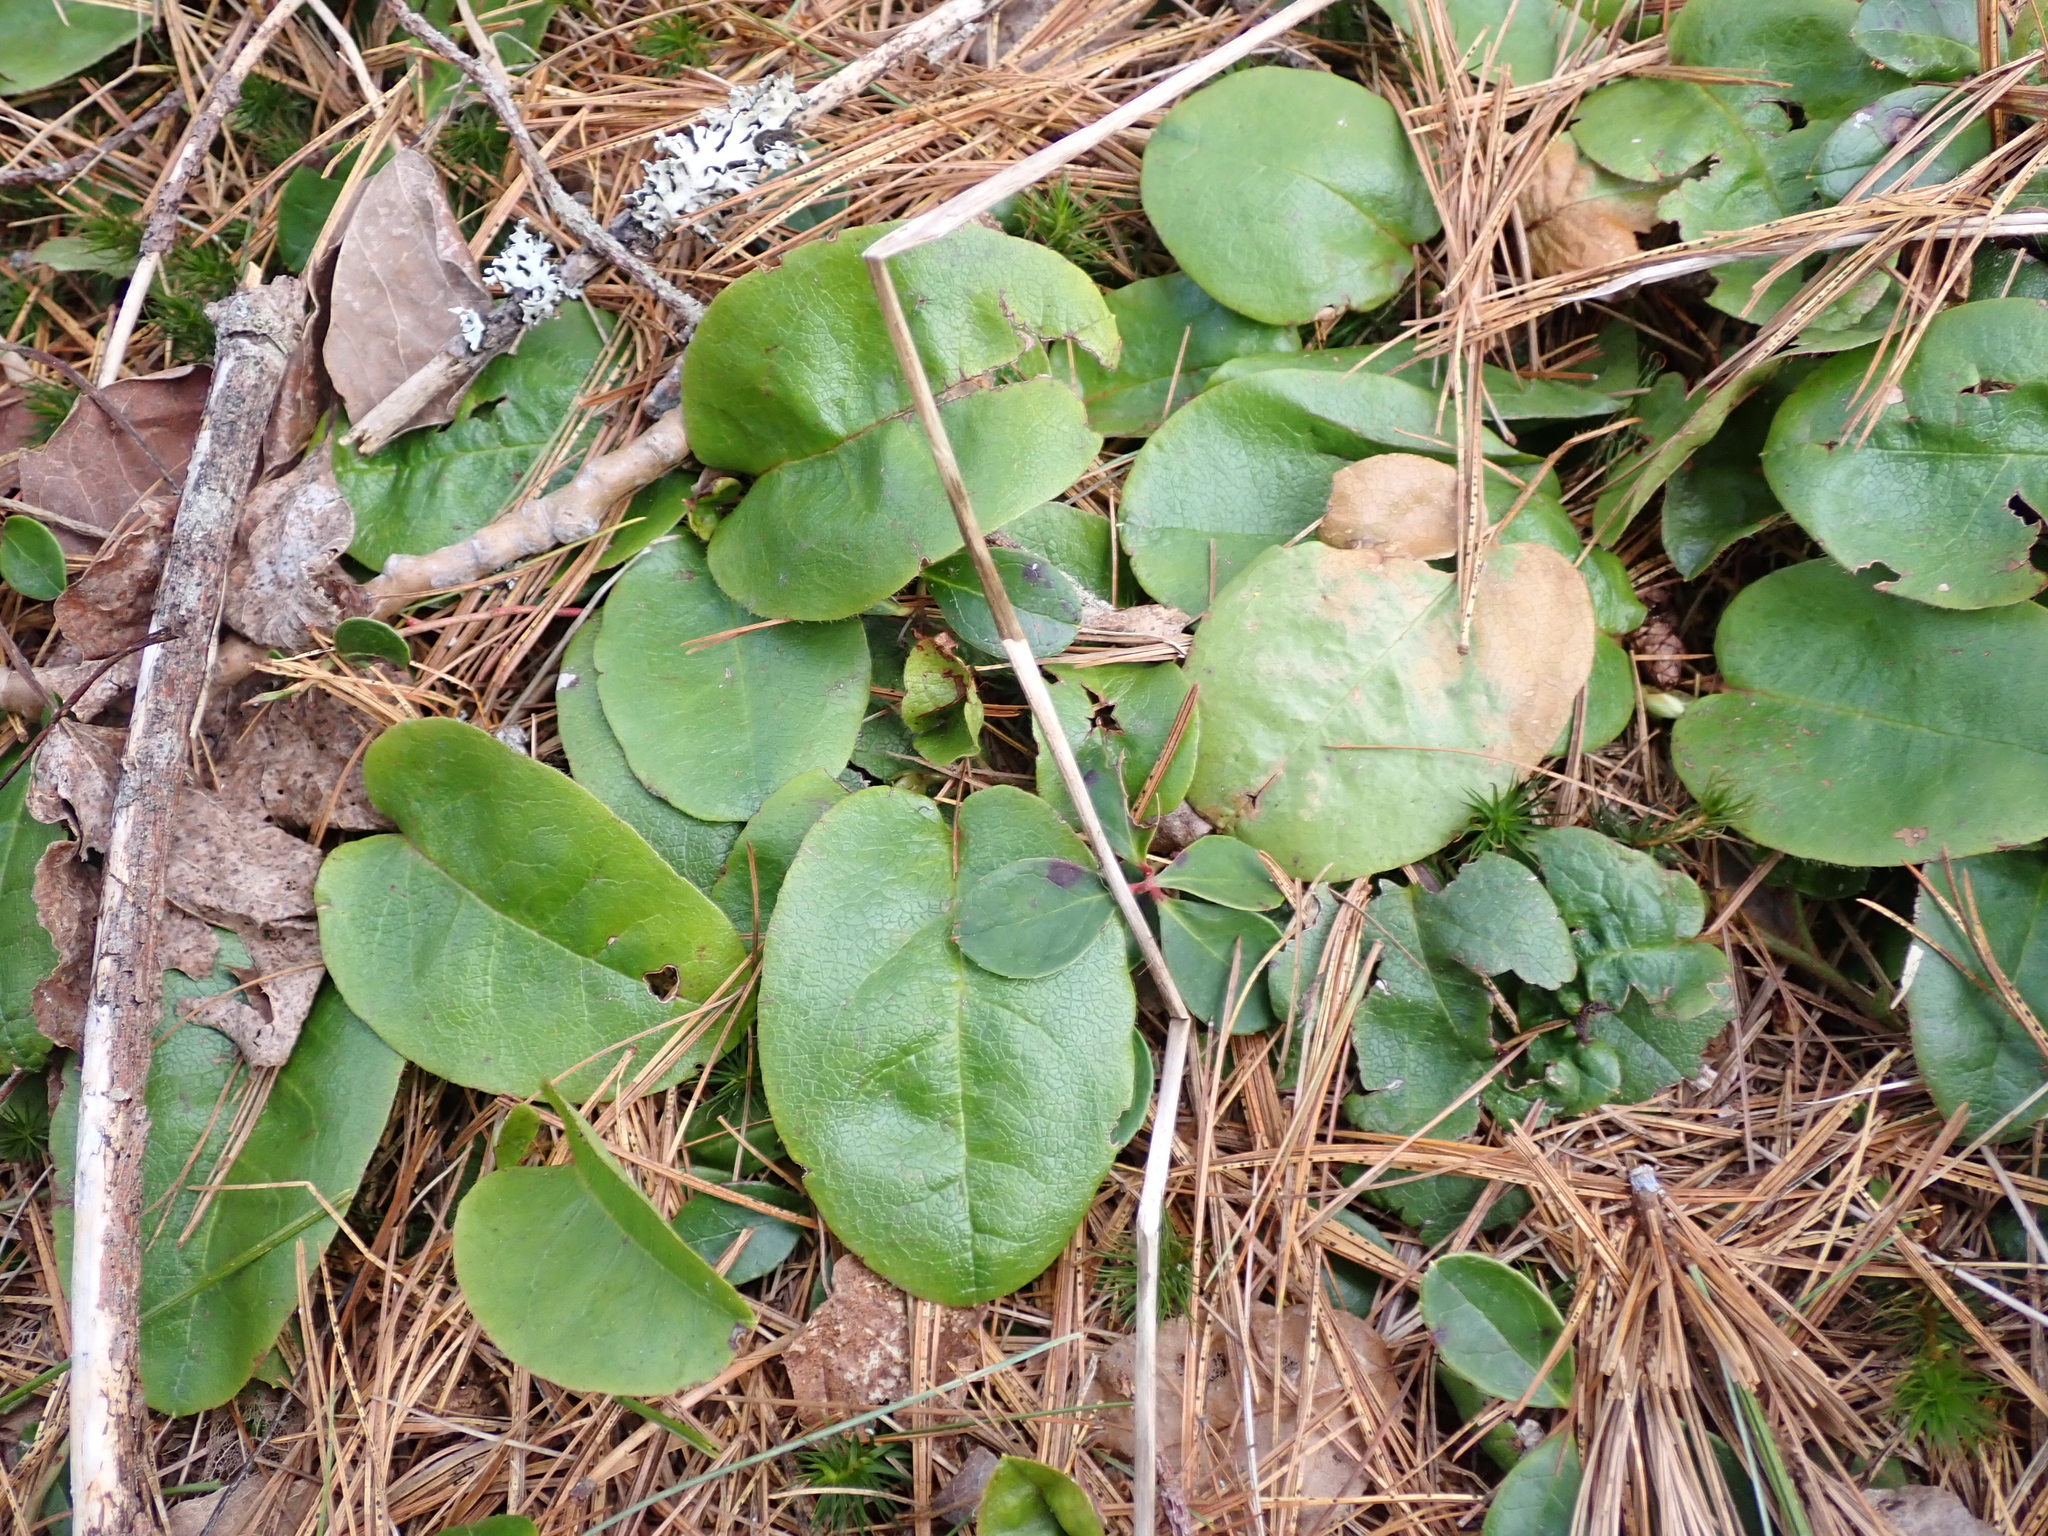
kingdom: Plantae
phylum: Tracheophyta
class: Magnoliopsida
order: Ericales
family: Ericaceae
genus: Epigaea
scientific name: Epigaea repens
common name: Gravelroot
